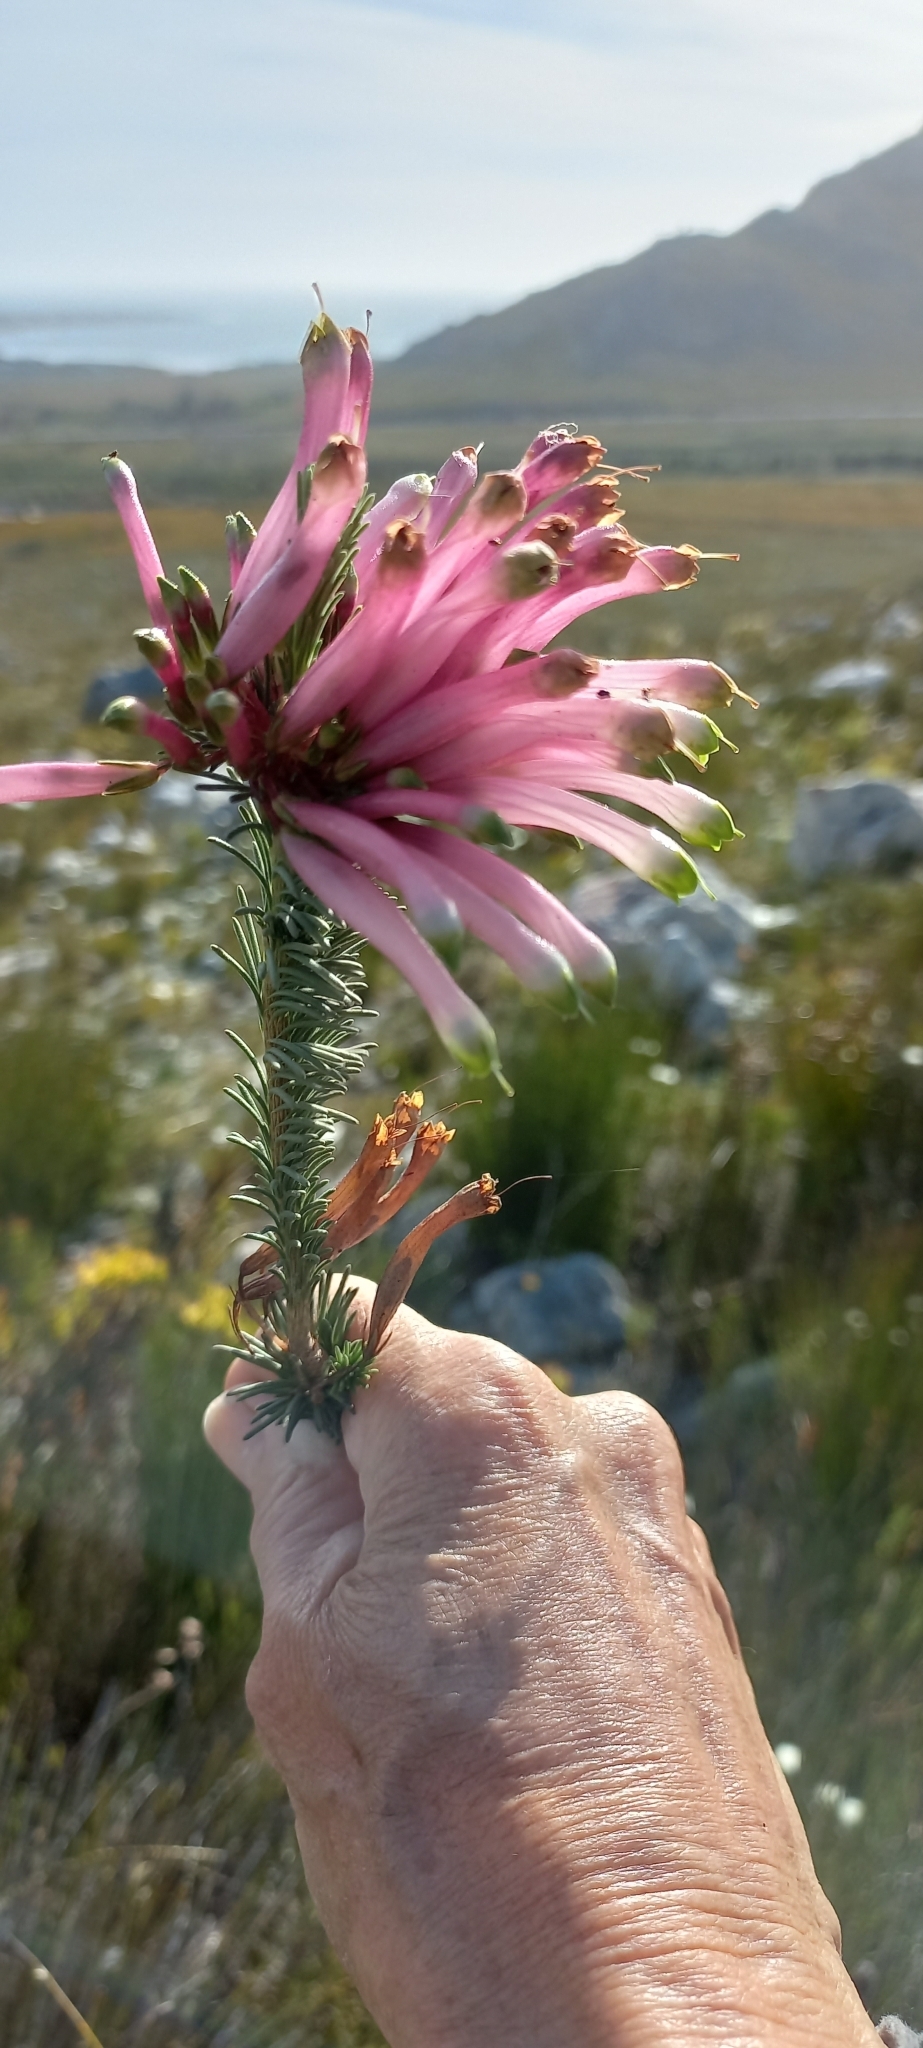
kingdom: Plantae
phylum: Tracheophyta
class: Magnoliopsida
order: Ericales
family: Ericaceae
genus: Erica
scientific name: Erica fascicularis
